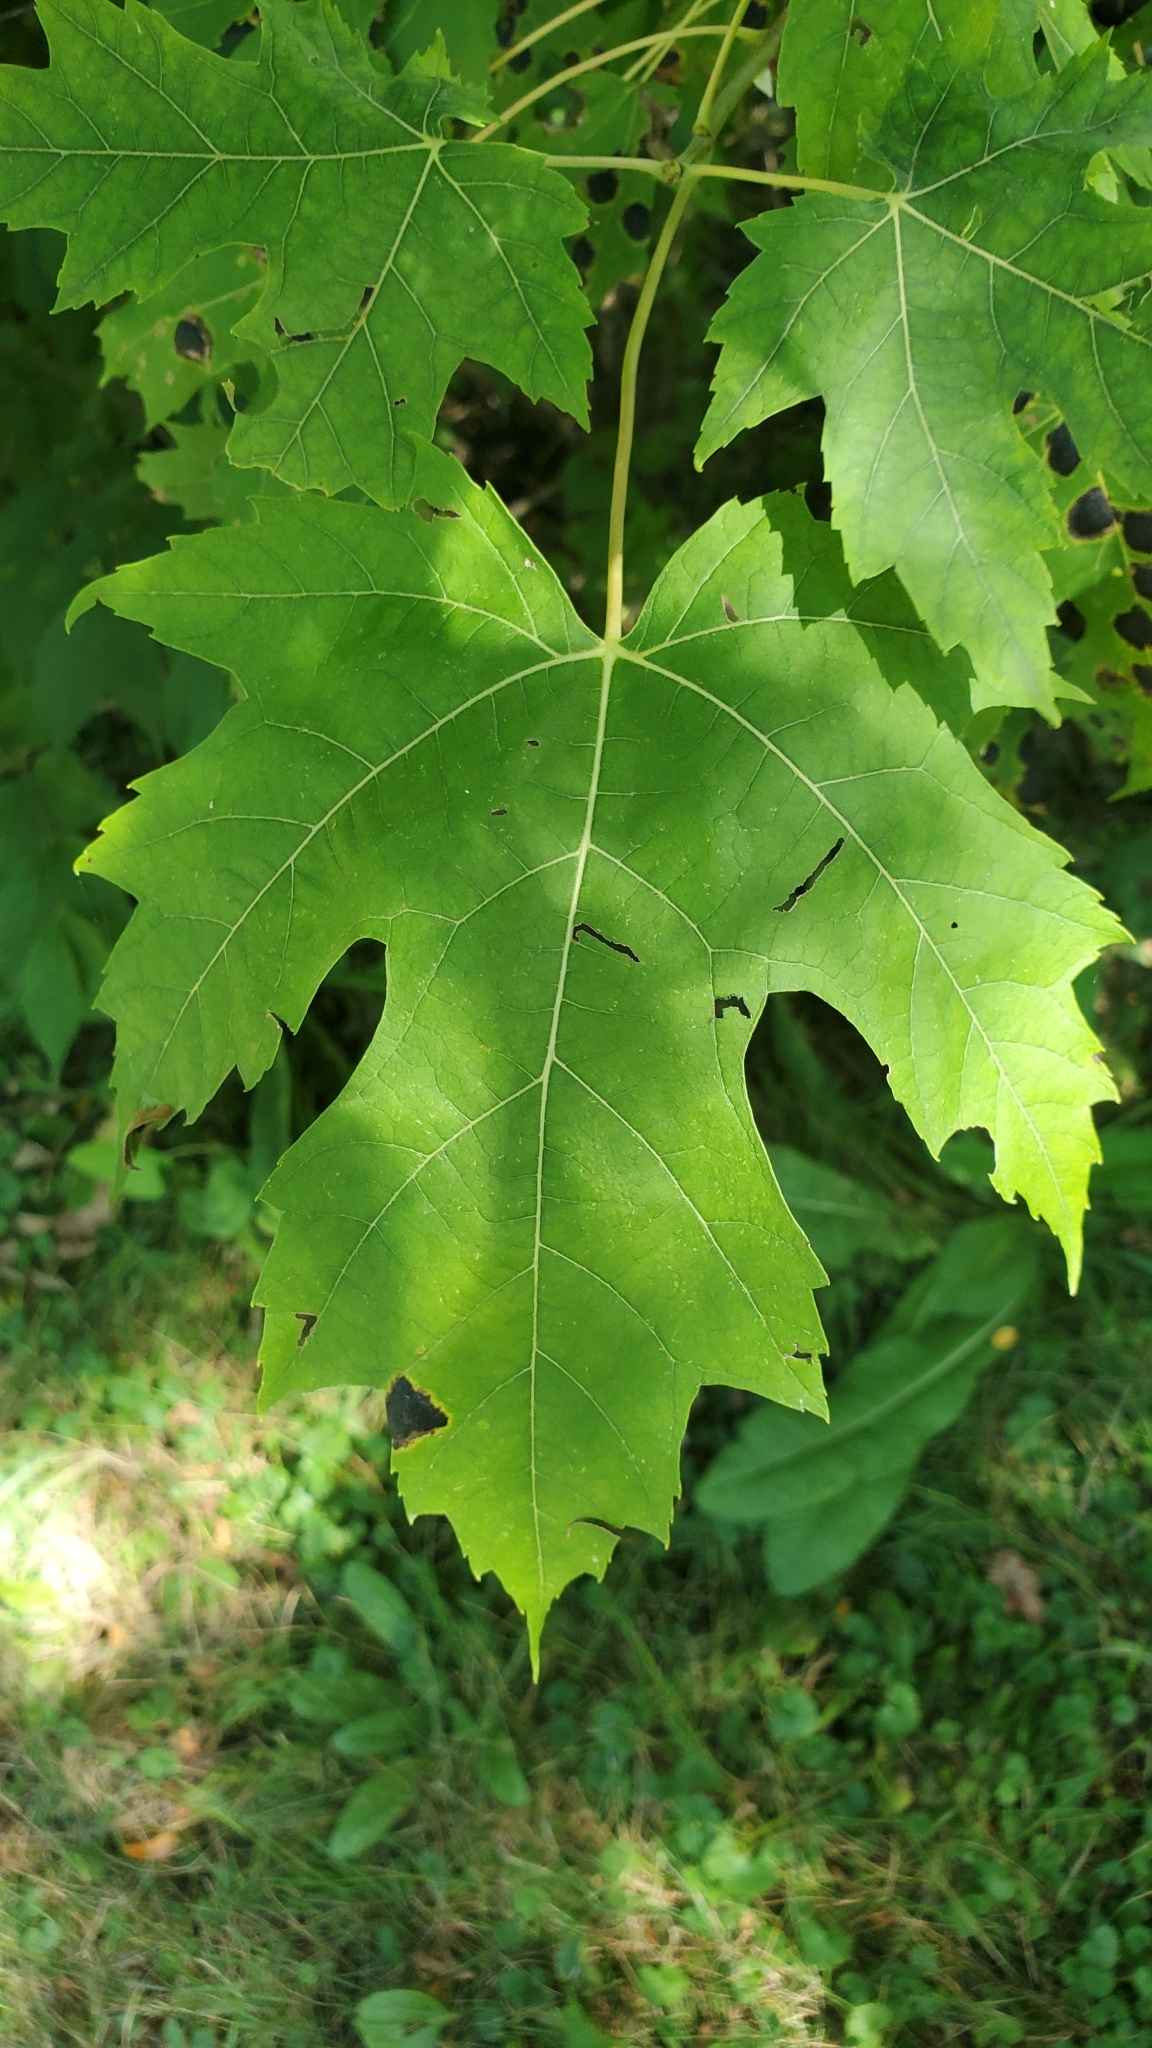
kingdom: Plantae
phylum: Tracheophyta
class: Magnoliopsida
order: Sapindales
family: Sapindaceae
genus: Acer
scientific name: Acer saccharinum
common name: Silver maple
